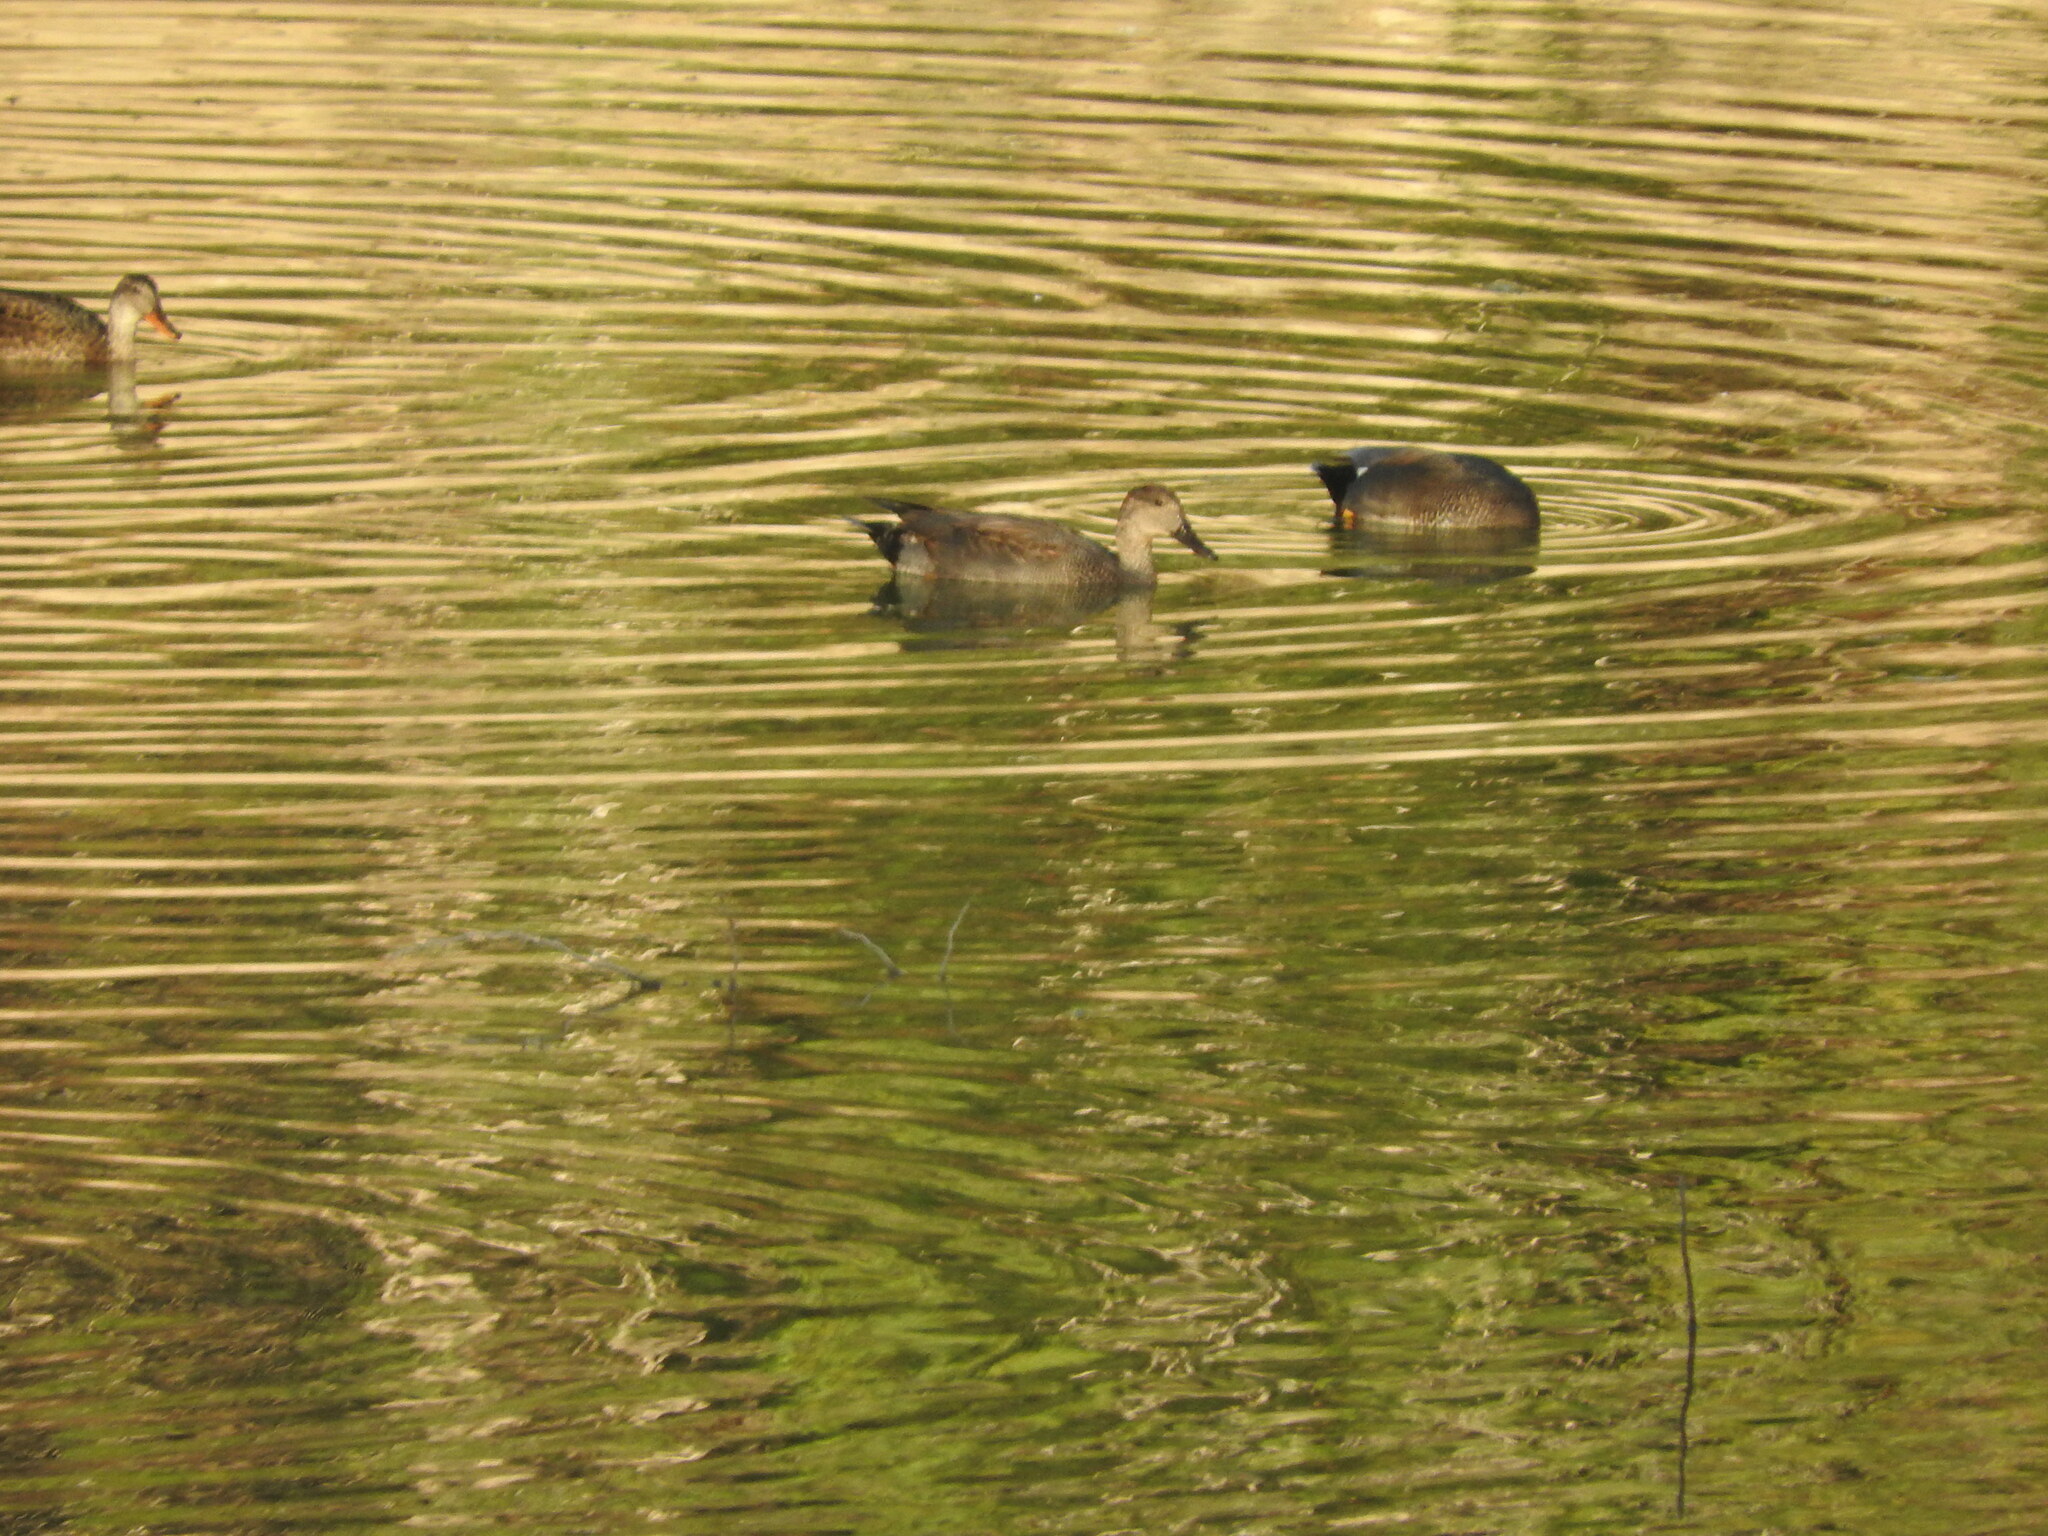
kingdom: Animalia
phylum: Chordata
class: Aves
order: Anseriformes
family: Anatidae
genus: Mareca
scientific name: Mareca strepera
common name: Gadwall
